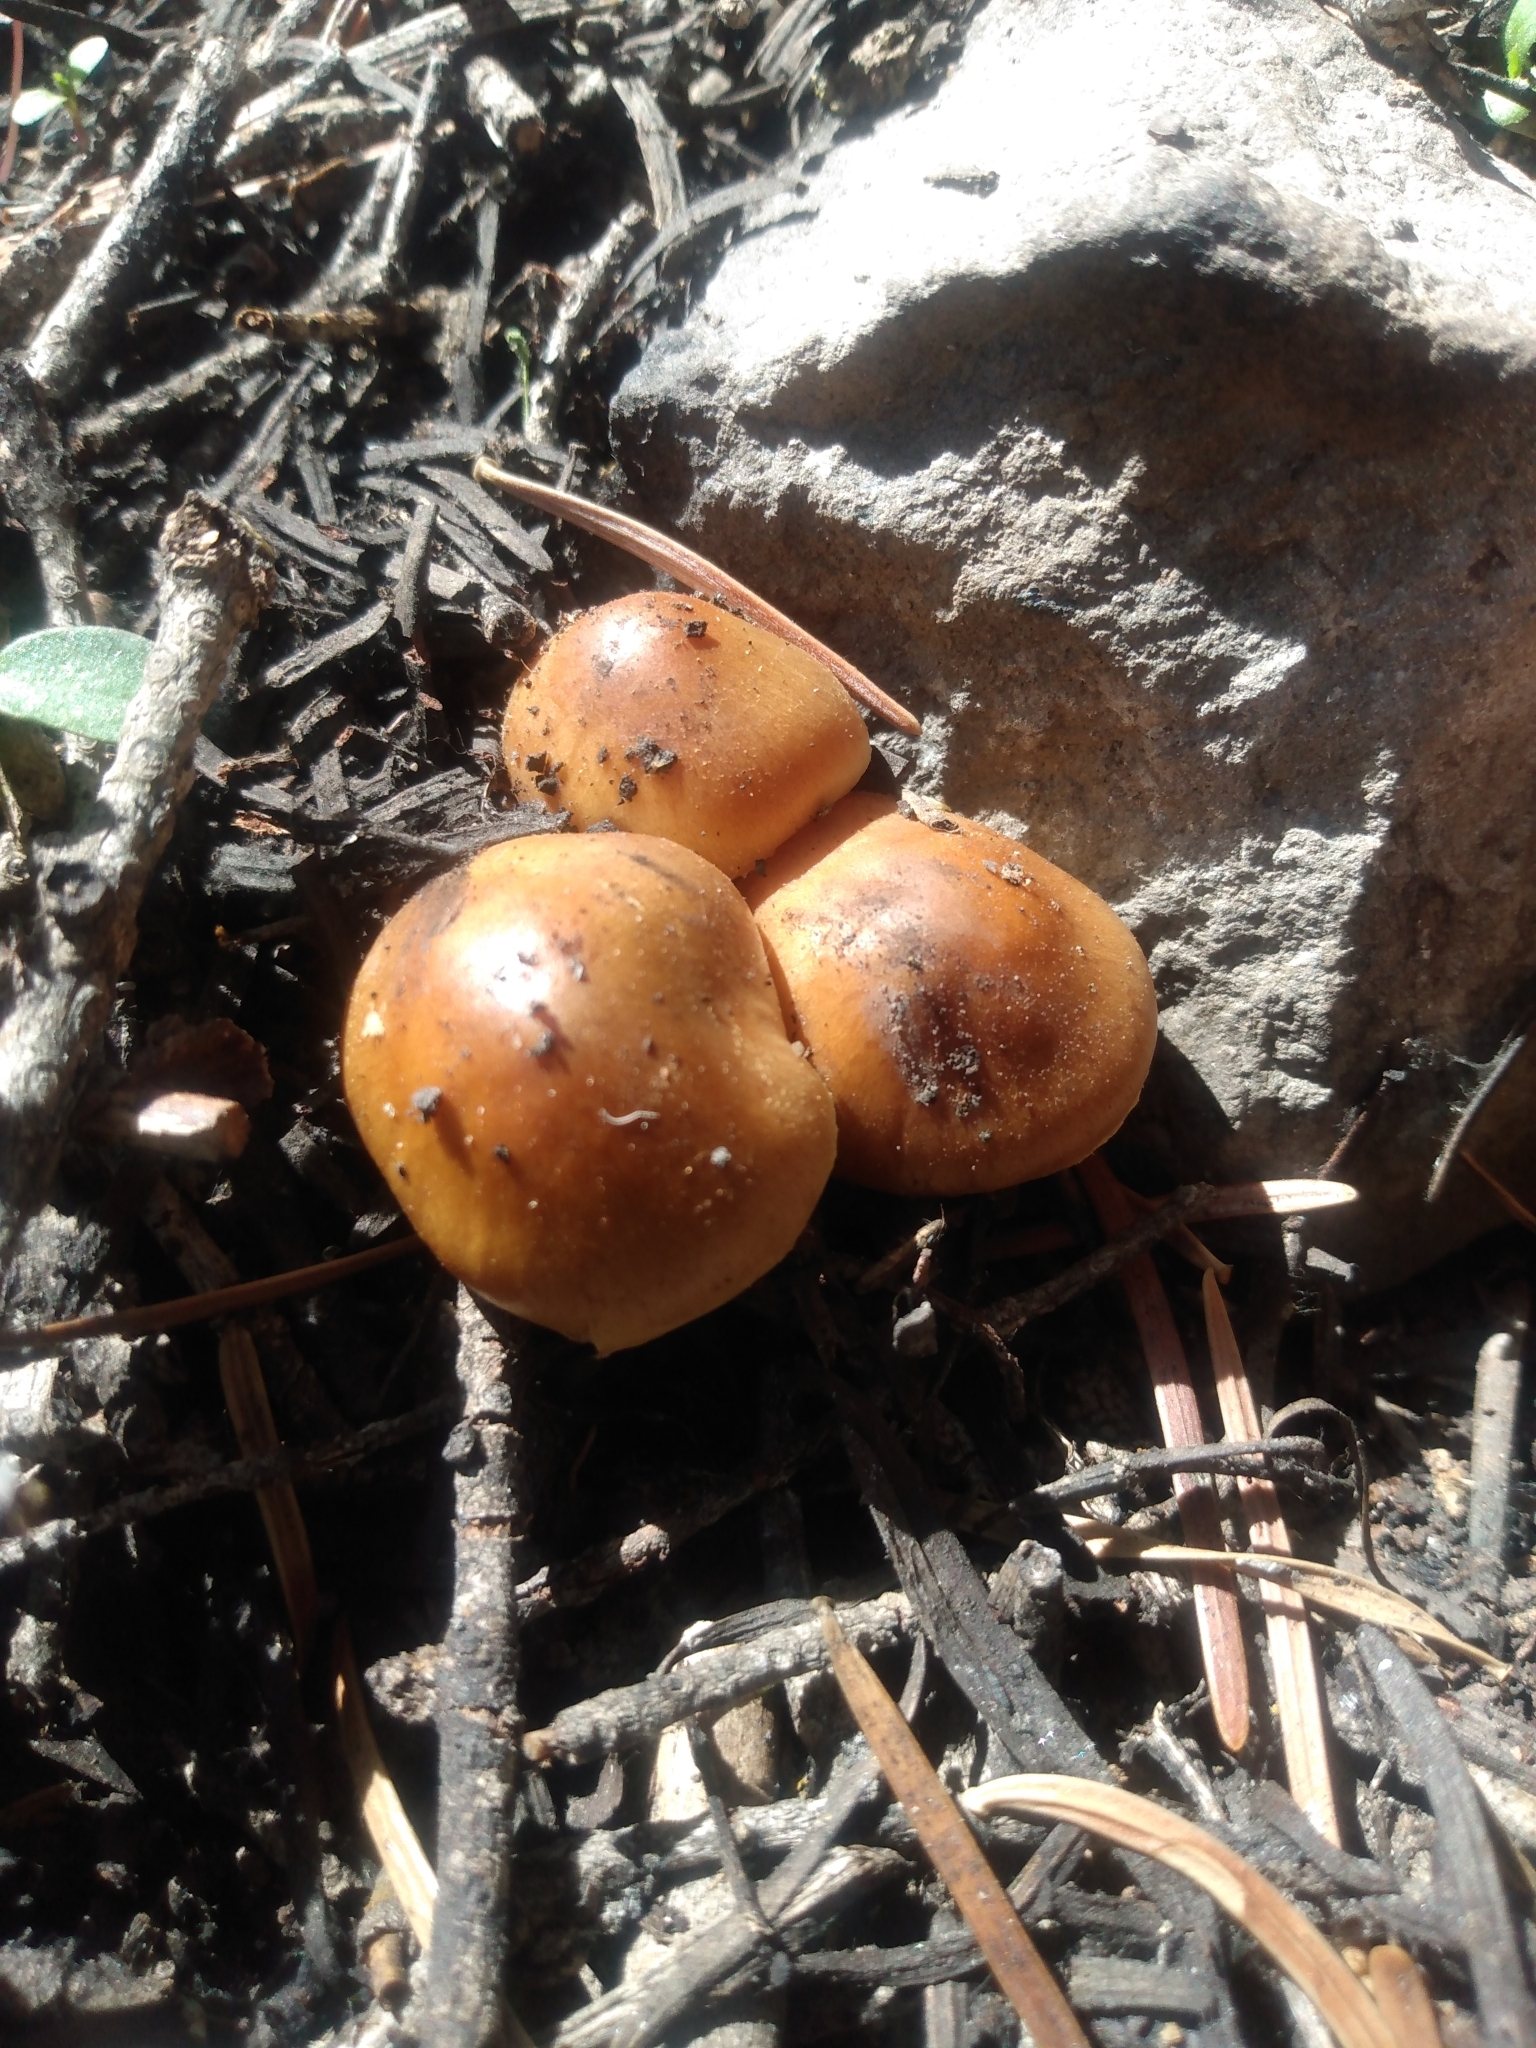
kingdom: Fungi
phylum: Basidiomycota
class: Agaricomycetes
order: Agaricales
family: Physalacriaceae
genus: Flammulina
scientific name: Flammulina populicola
